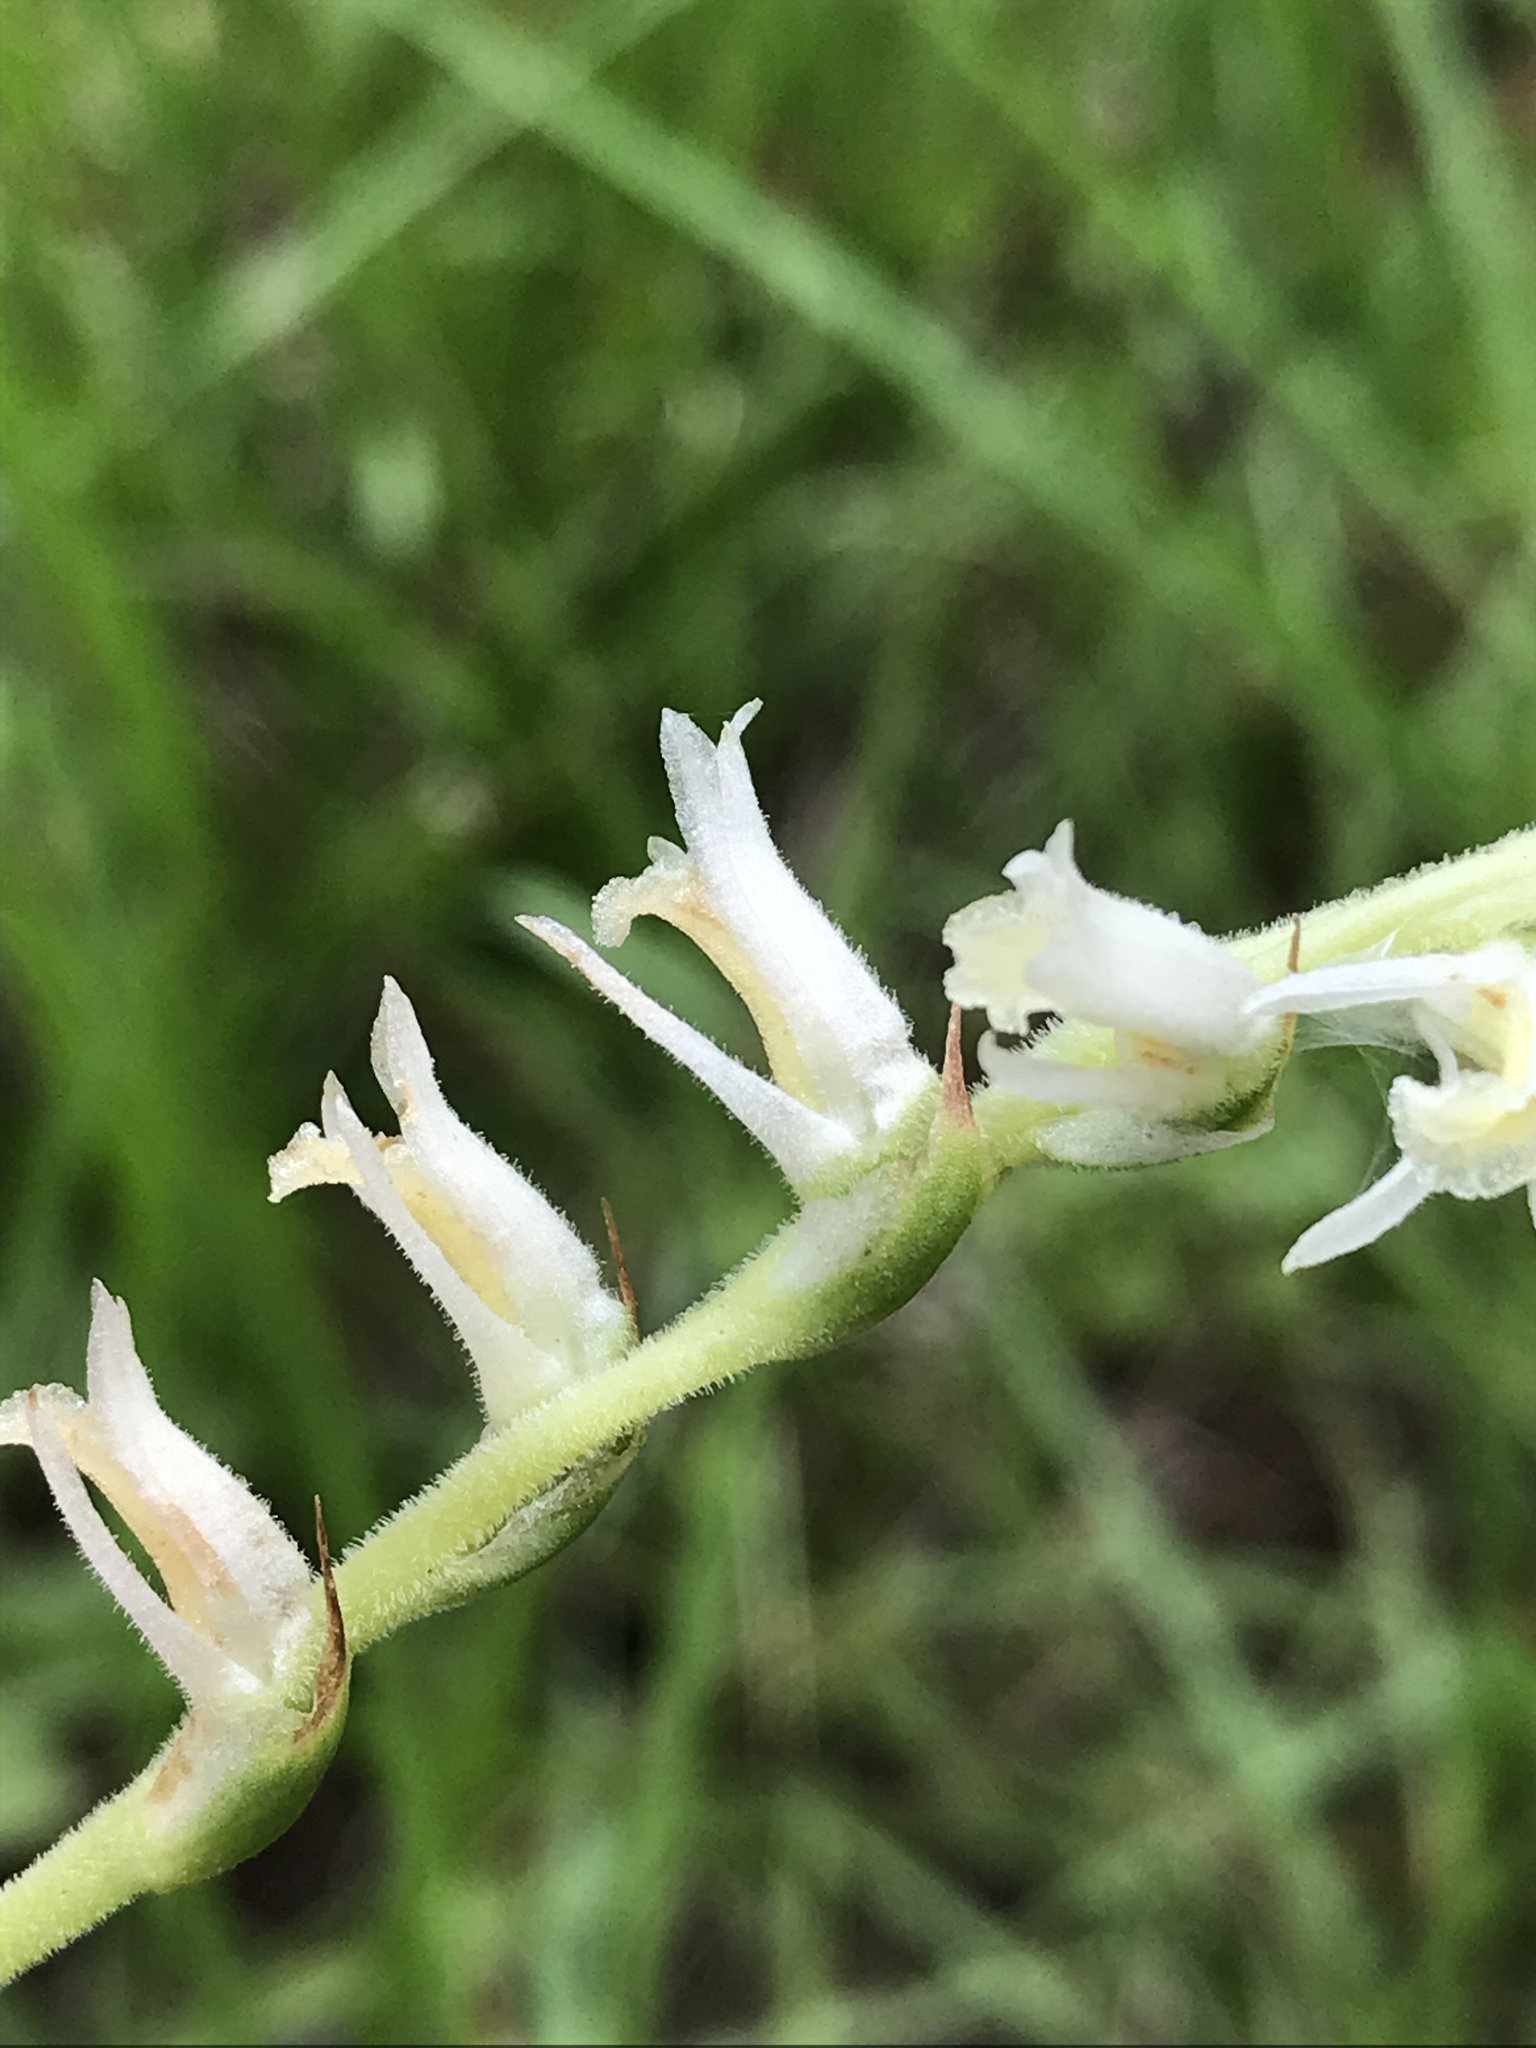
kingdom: Plantae
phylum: Tracheophyta
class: Liliopsida
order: Asparagales
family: Orchidaceae
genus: Spiranthes
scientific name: Spiranthes vernalis
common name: Spring ladies'-tresses
